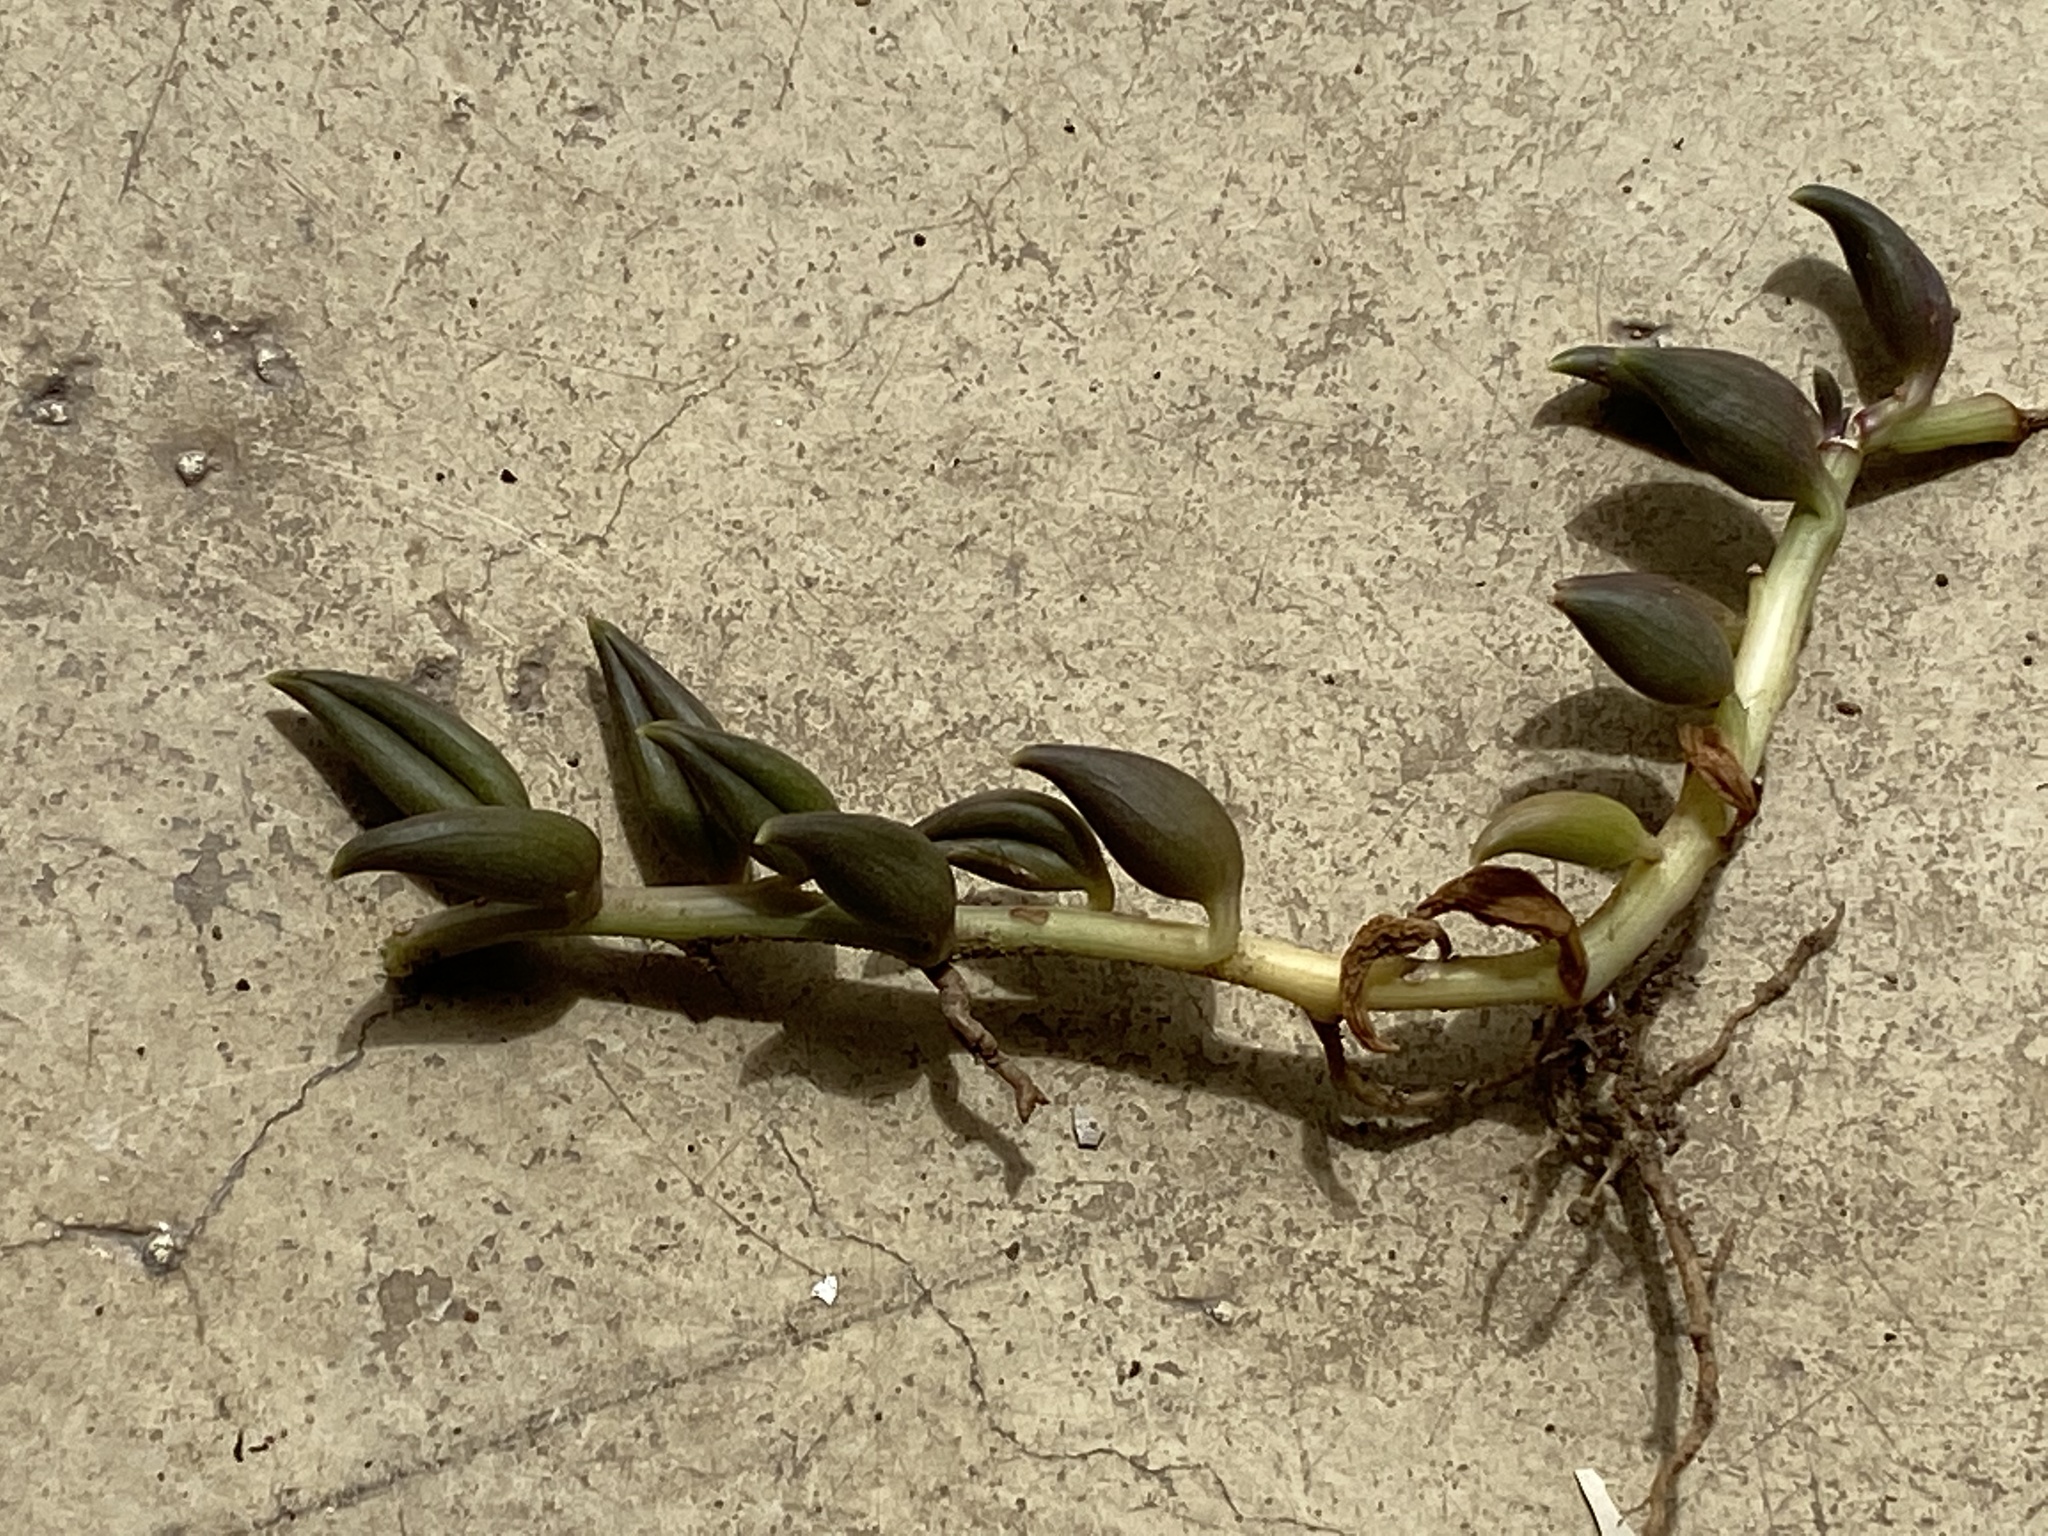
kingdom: Plantae
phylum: Tracheophyta
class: Magnoliopsida
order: Asterales
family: Asteraceae
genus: Curio
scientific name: Curio radicans
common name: Creeping-berry
